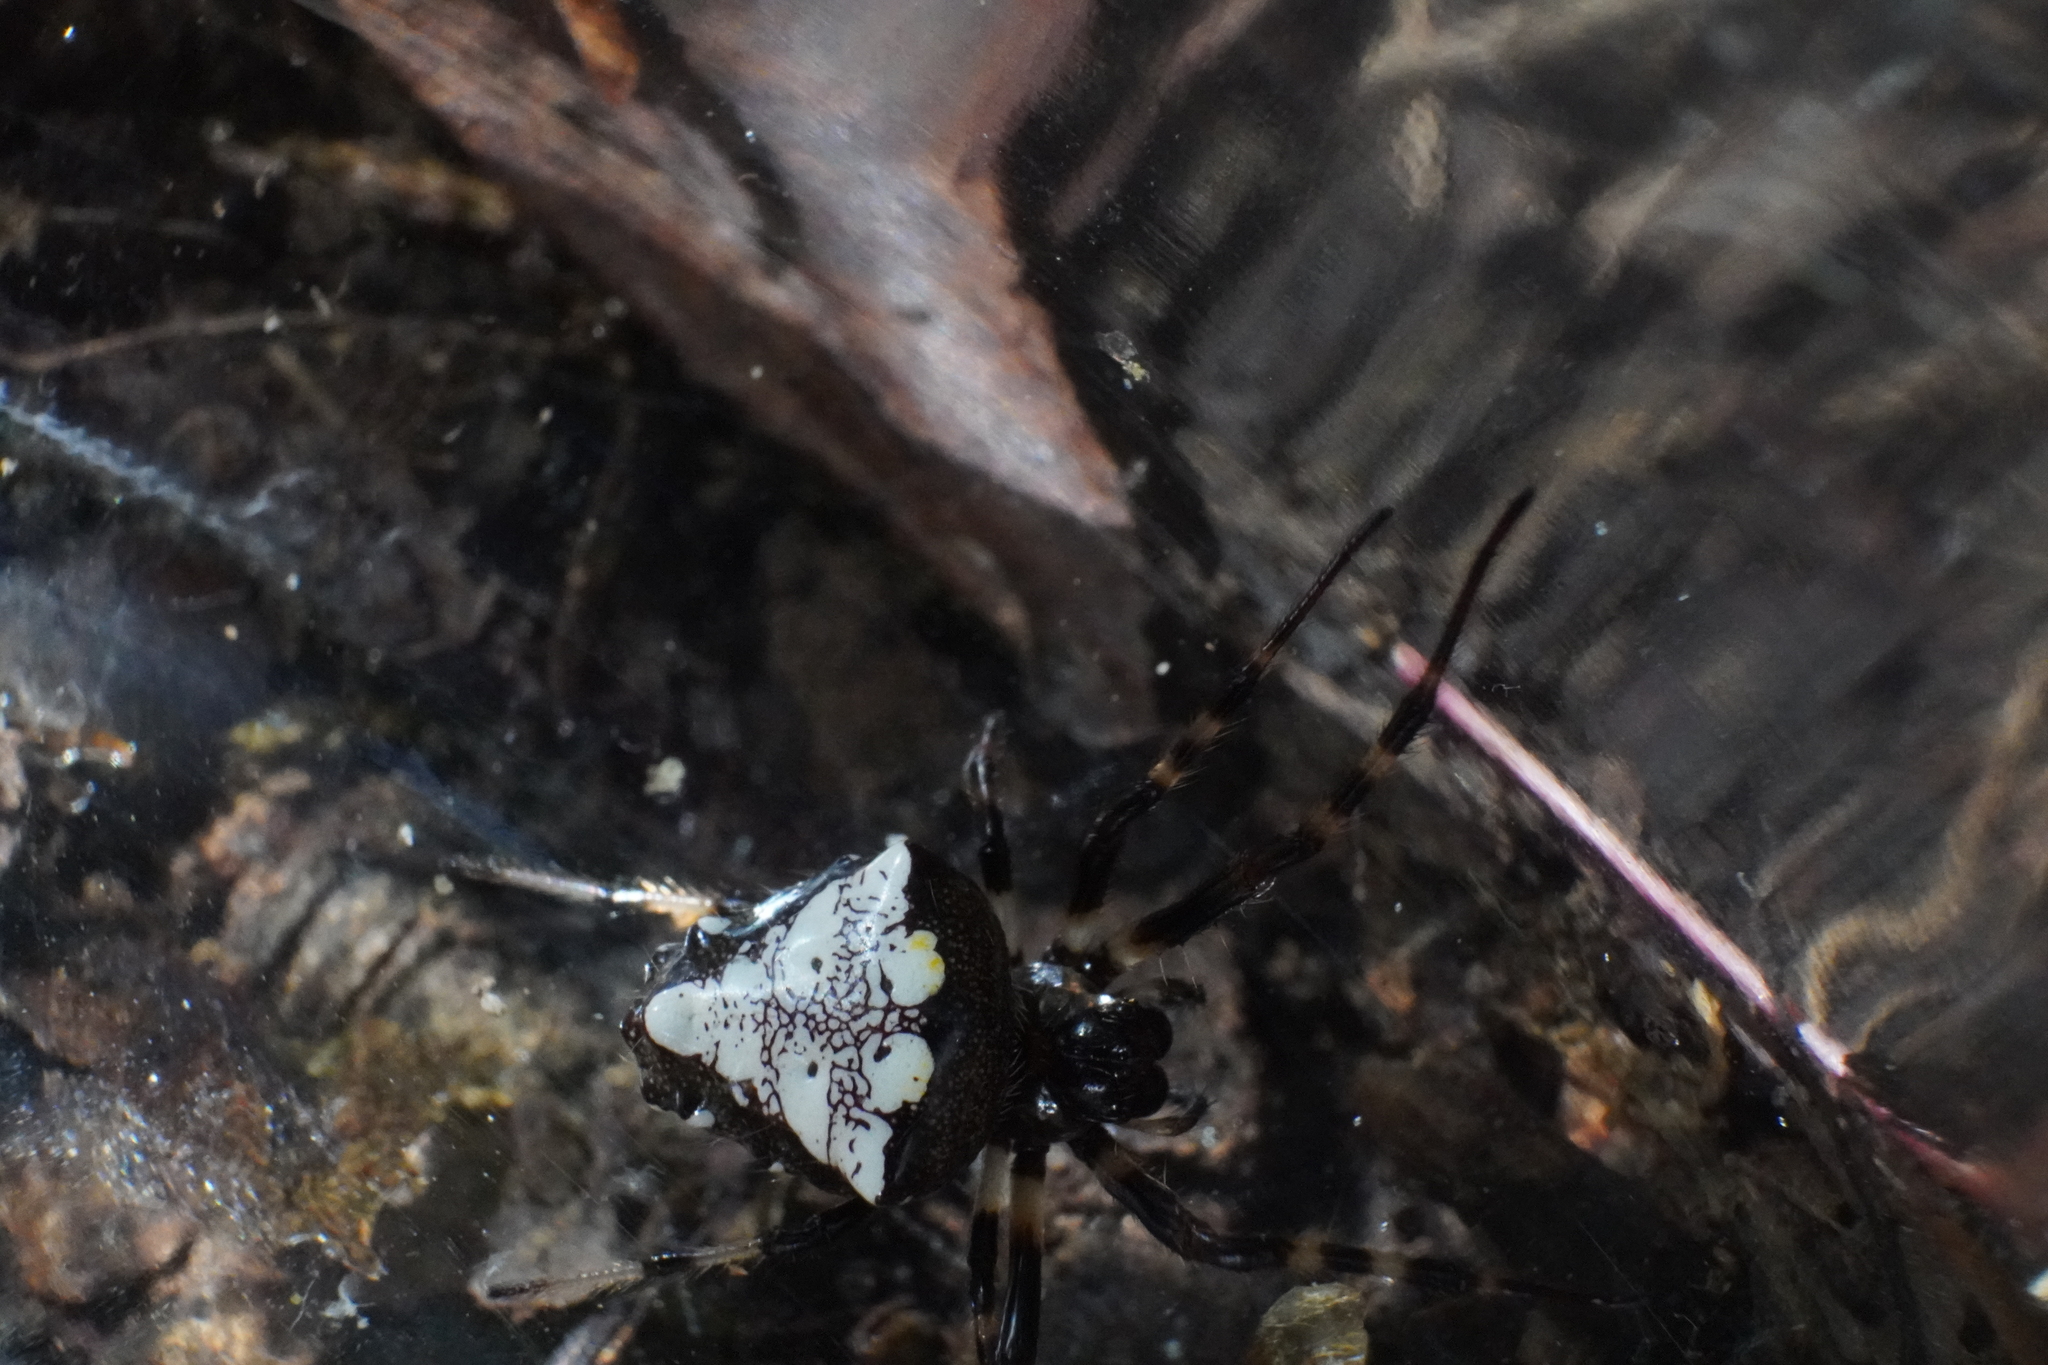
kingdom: Animalia
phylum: Arthropoda
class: Arachnida
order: Araneae
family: Araneidae
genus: Verrucosa
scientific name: Verrucosa arenata
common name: Orb weavers
